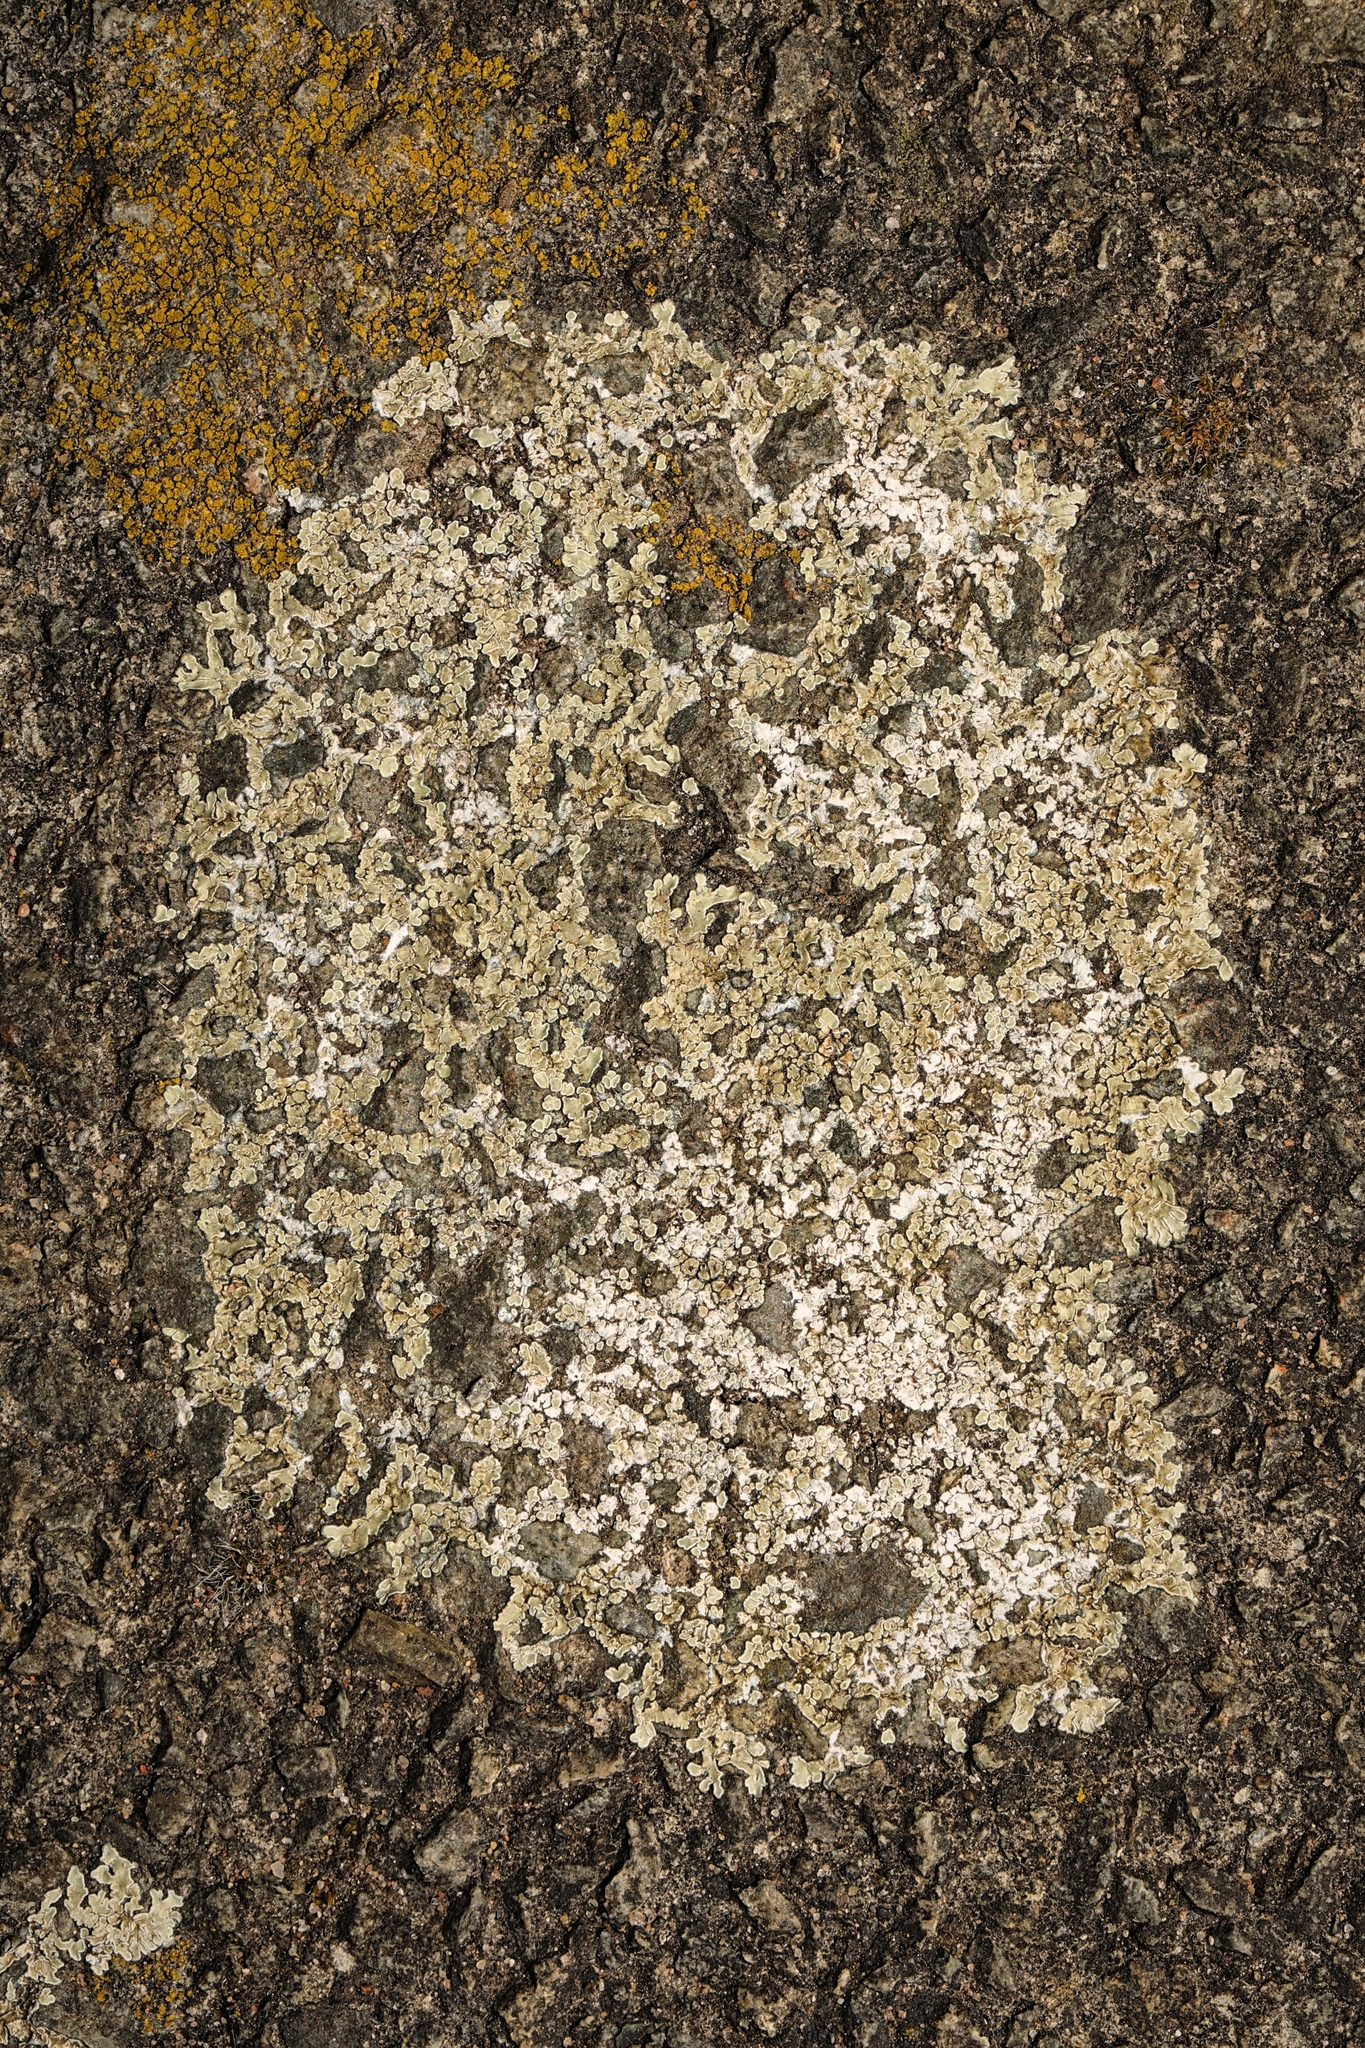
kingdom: Fungi
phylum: Ascomycota
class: Lecanoromycetes
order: Lecanorales
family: Lecanoraceae
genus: Protoparmeliopsis
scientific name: Protoparmeliopsis muralis
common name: Stonewall rim lichen
